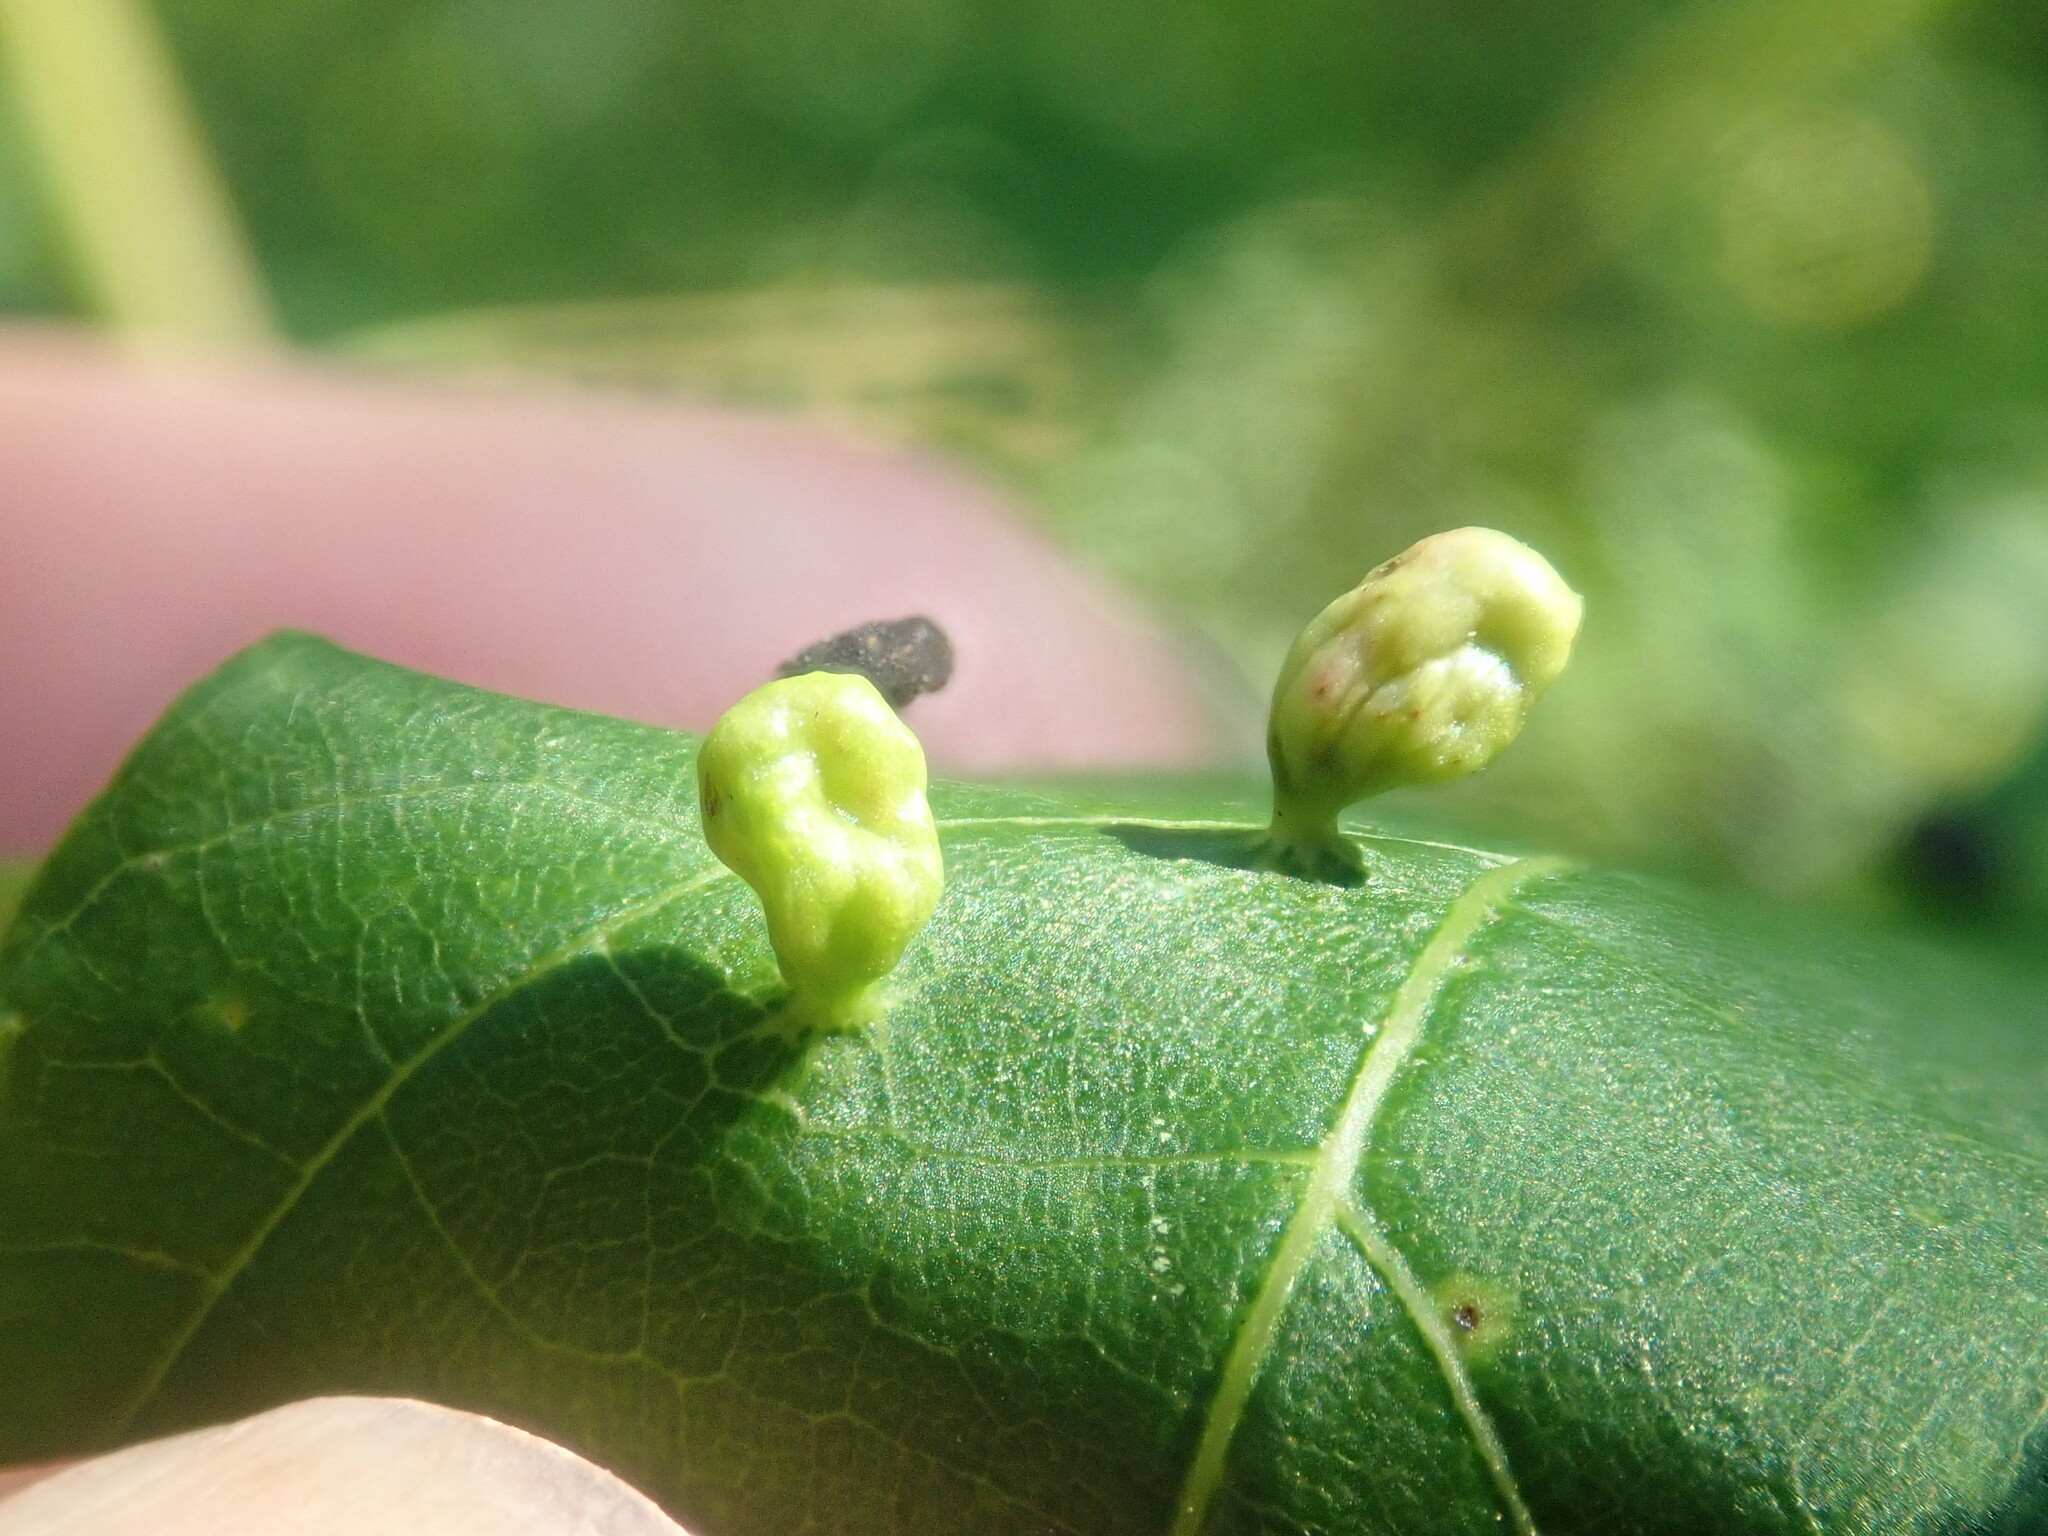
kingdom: Animalia
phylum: Arthropoda
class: Arachnida
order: Trombidiformes
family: Eriophyidae
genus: Vasates
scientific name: Vasates quadripedes
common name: Maple bladder gall mite
